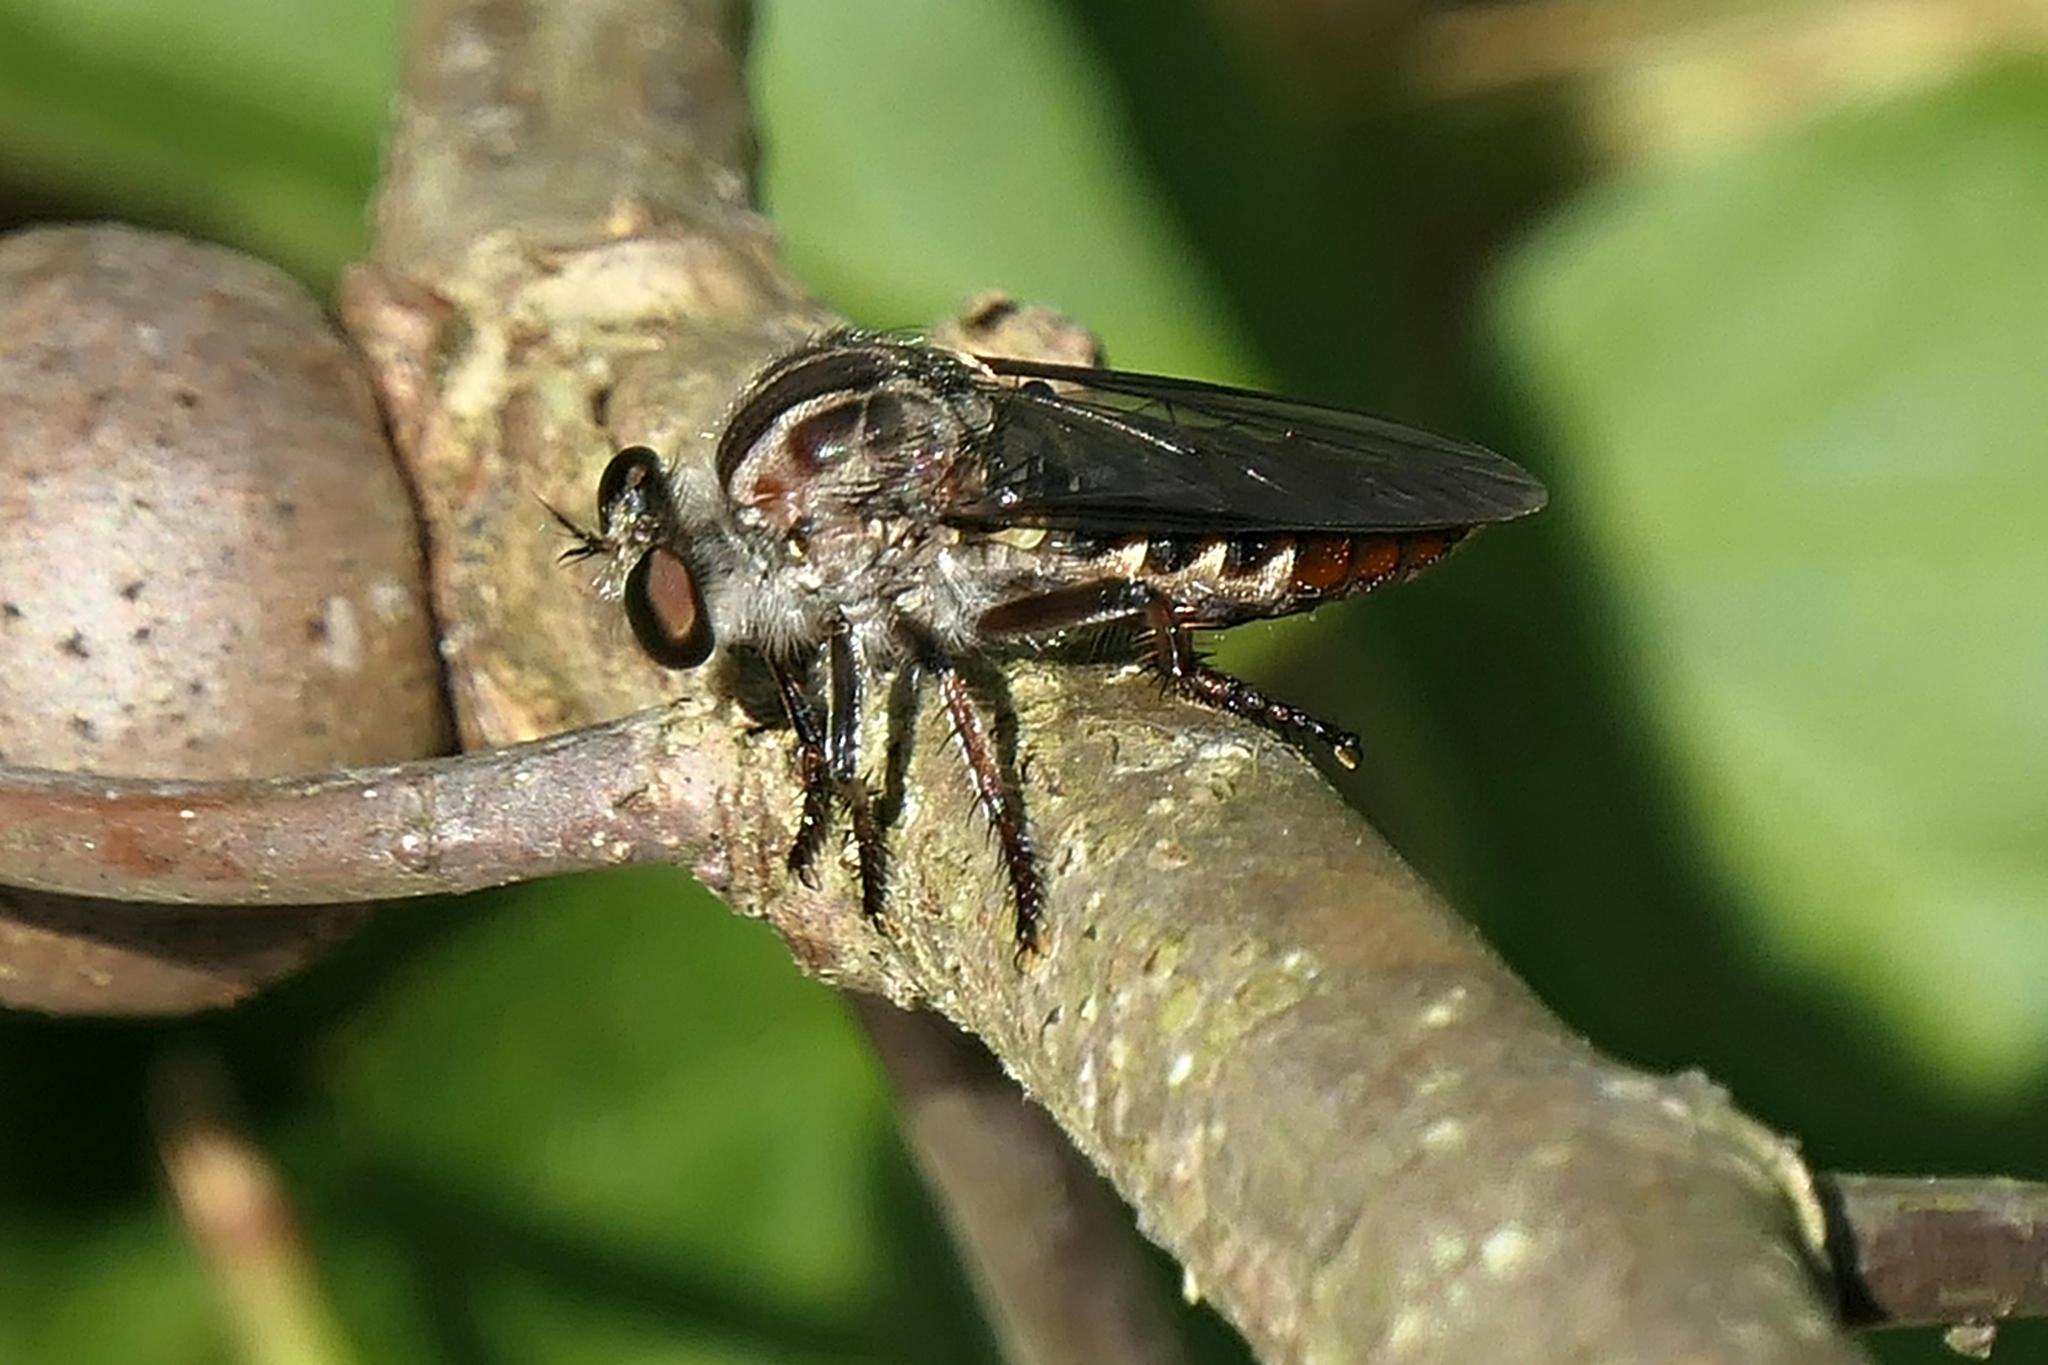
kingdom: Animalia
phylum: Arthropoda
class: Insecta
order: Diptera
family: Asilidae
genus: Heteropogon
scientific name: Heteropogon macerinus
